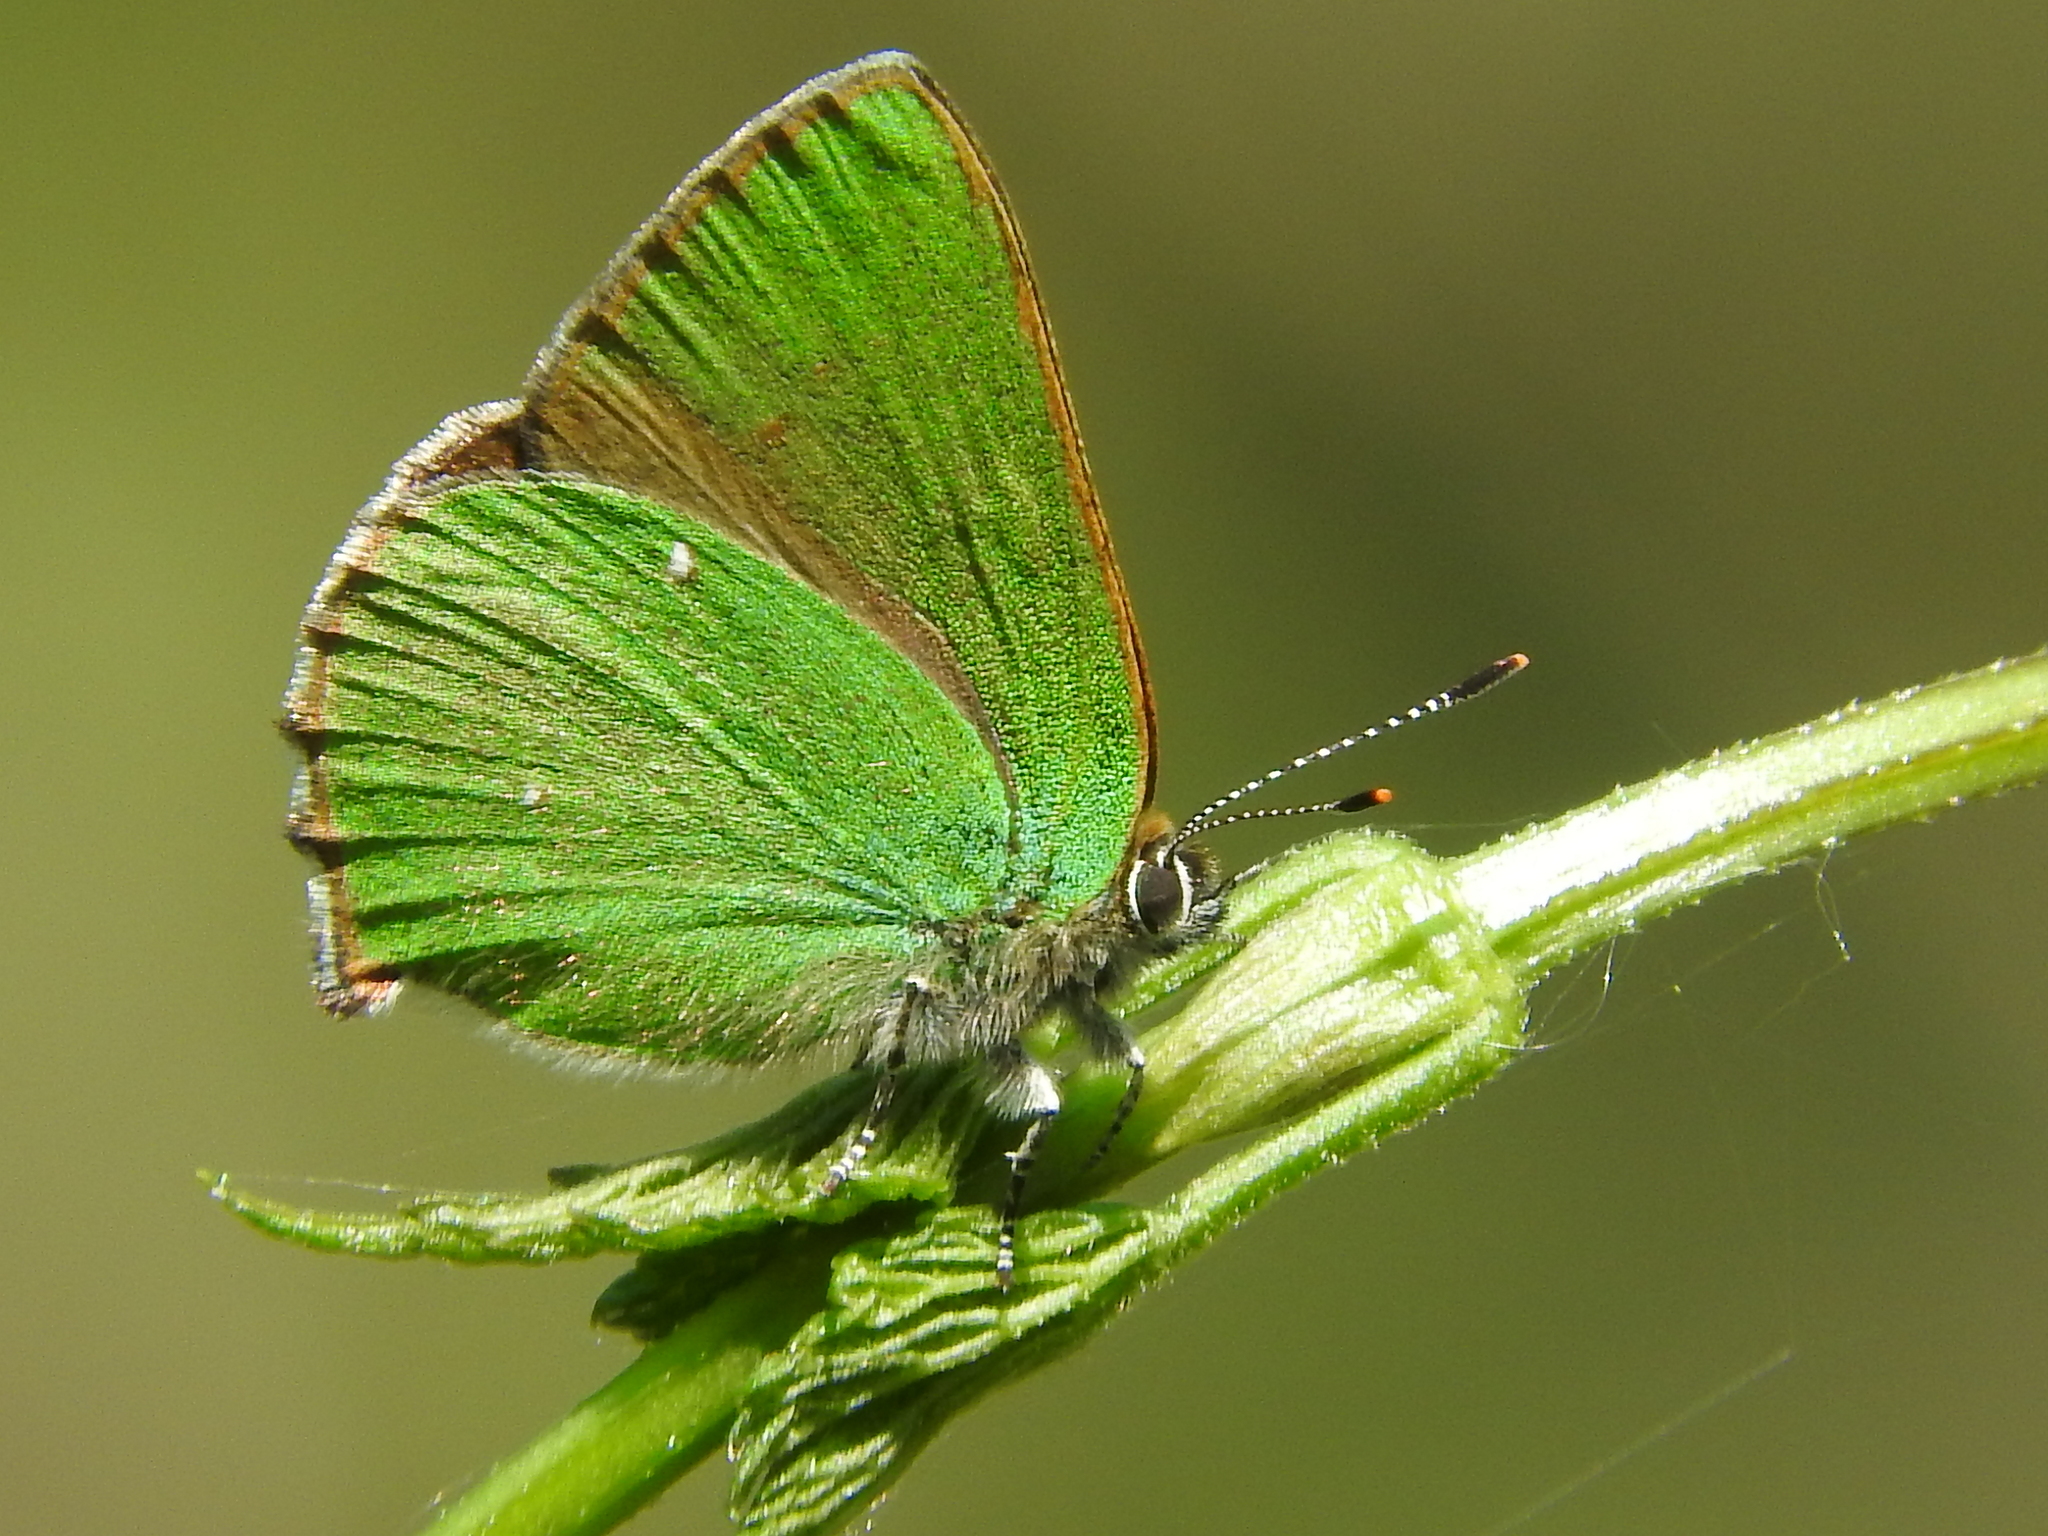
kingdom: Animalia
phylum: Arthropoda
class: Insecta
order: Lepidoptera
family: Lycaenidae
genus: Callophrys
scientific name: Callophrys rubi
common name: Green hairstreak
